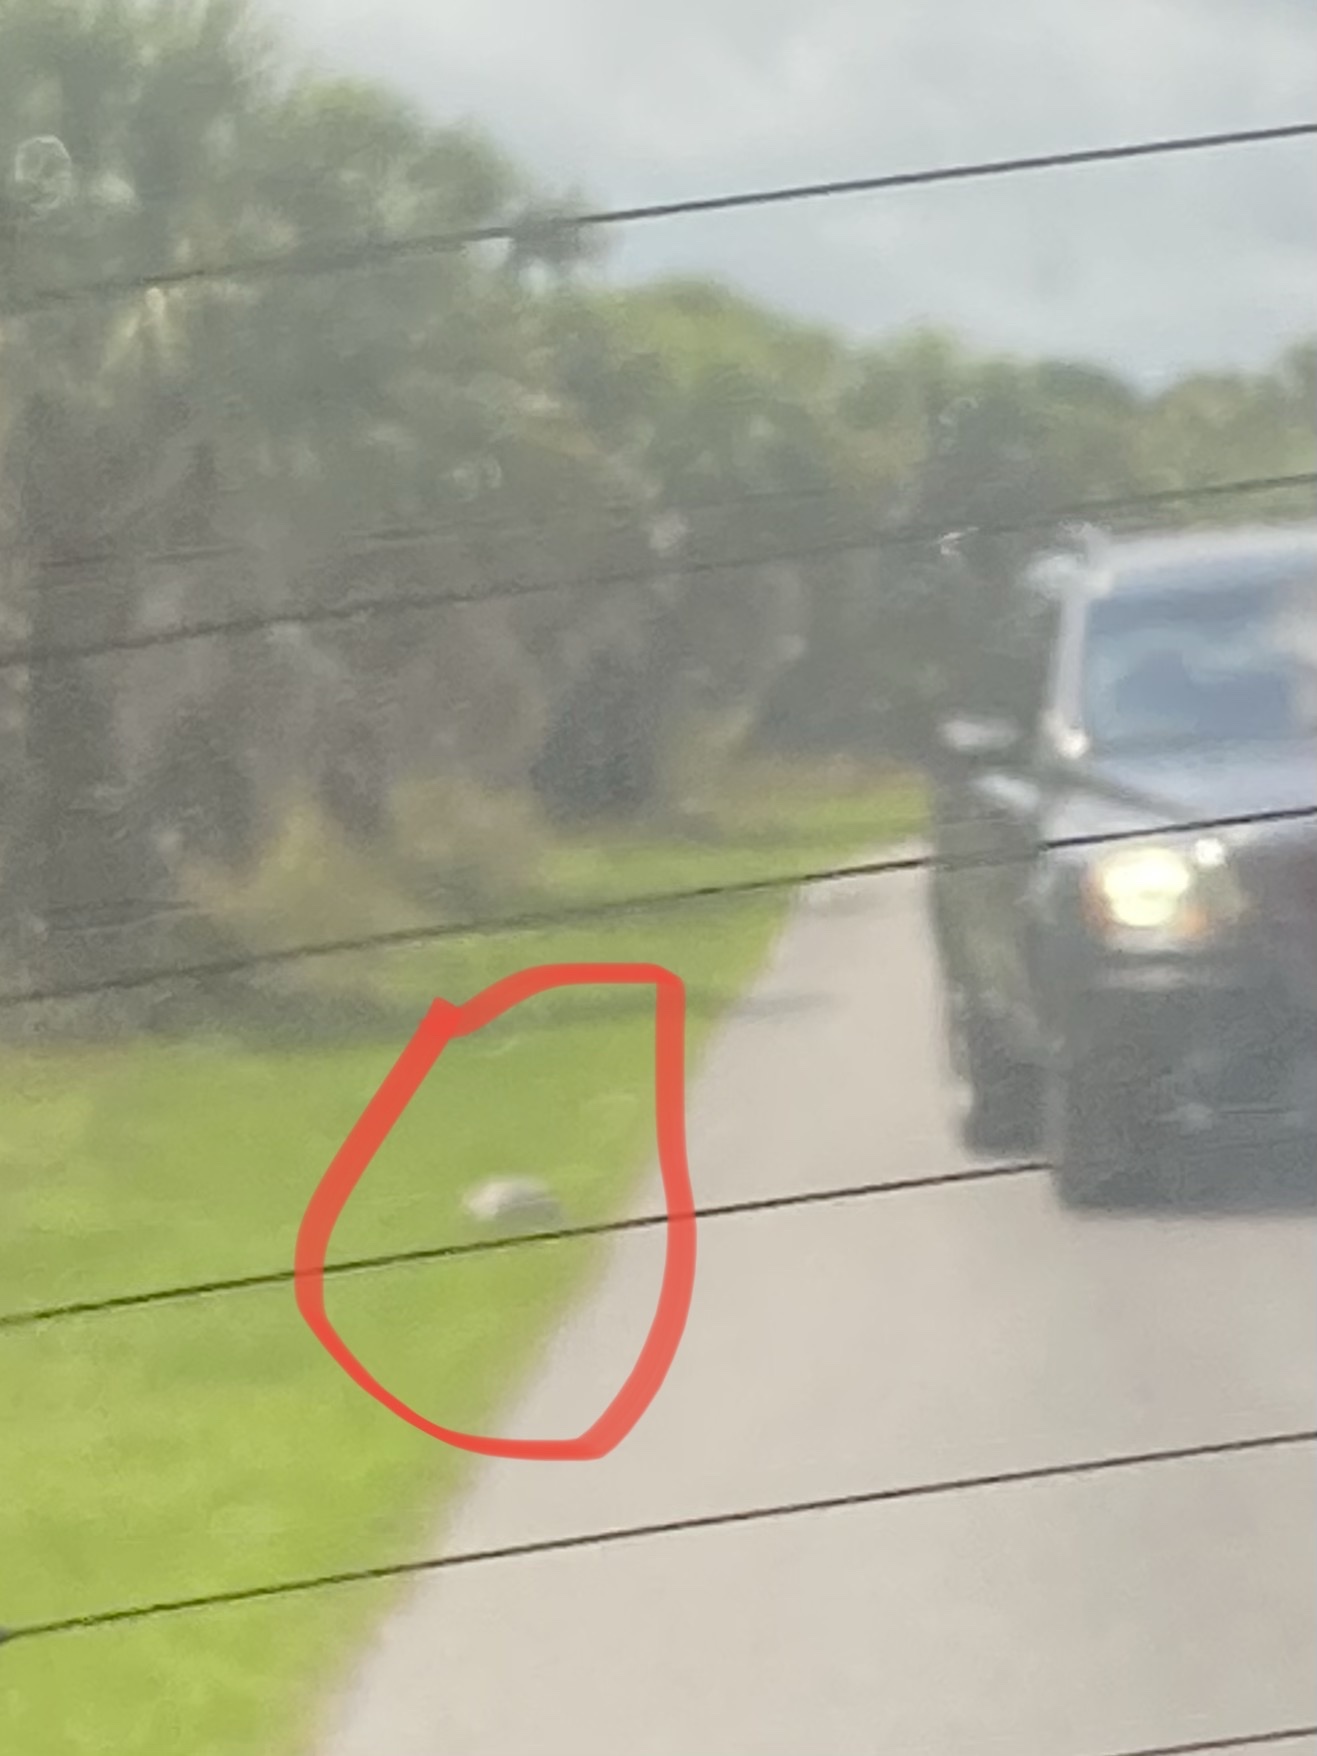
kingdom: Animalia
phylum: Chordata
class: Testudines
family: Testudinidae
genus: Gopherus
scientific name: Gopherus polyphemus
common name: Florida gopher tortoise
